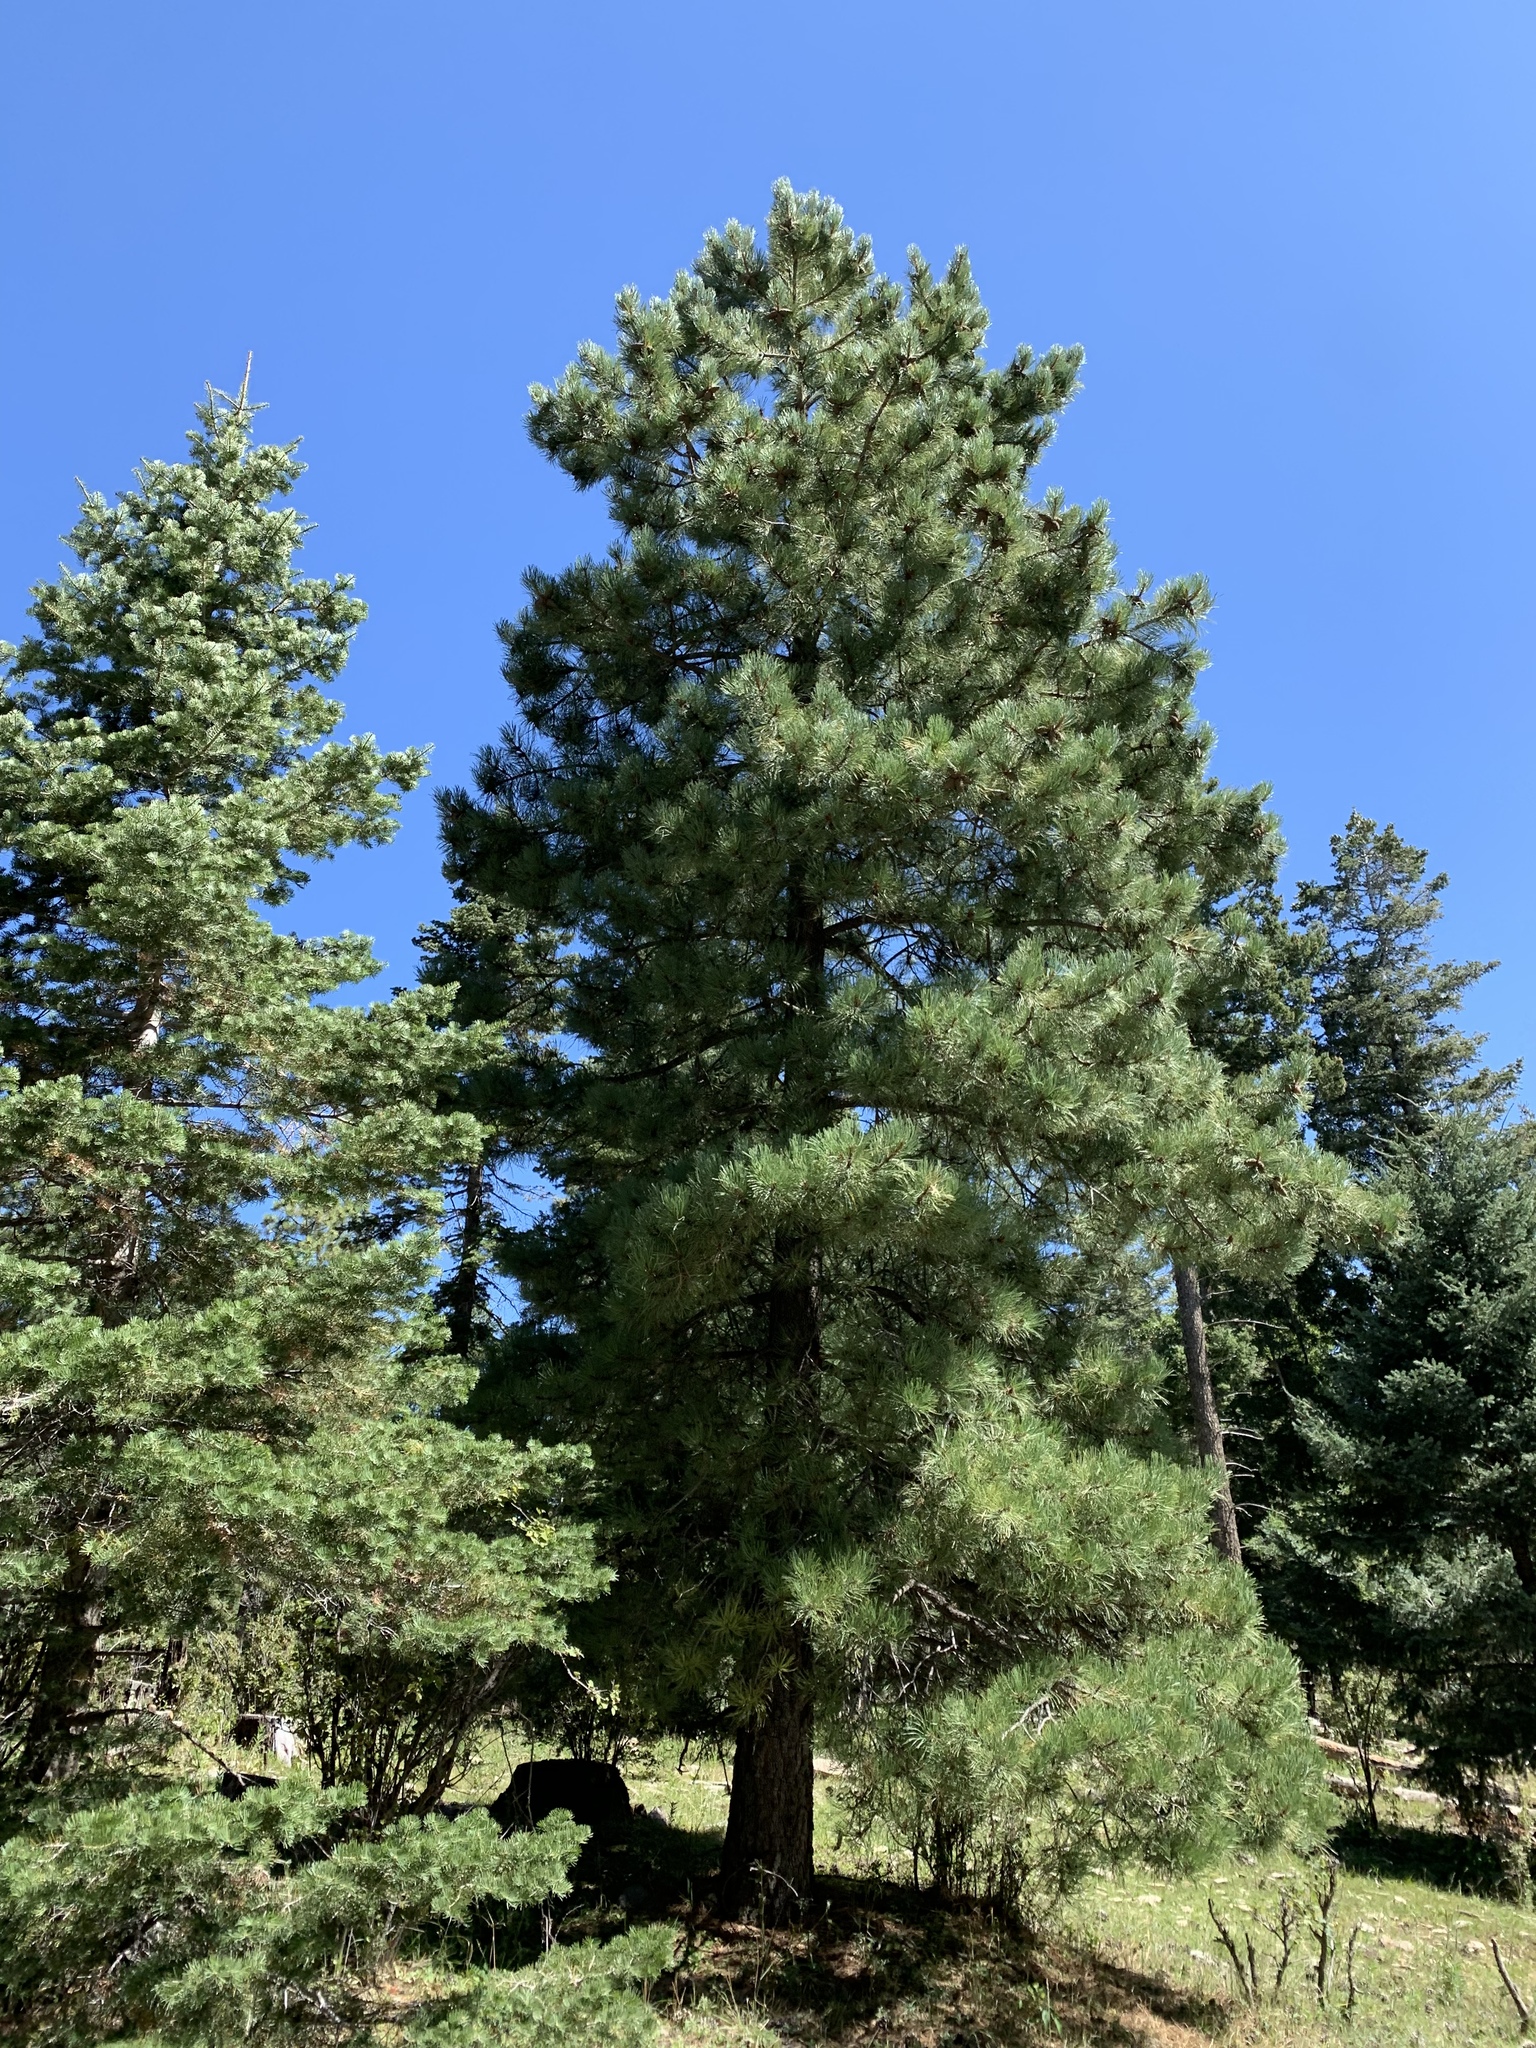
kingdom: Plantae
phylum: Tracheophyta
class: Pinopsida
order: Pinales
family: Pinaceae
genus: Pinus
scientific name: Pinus ponderosa
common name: Western yellow-pine
